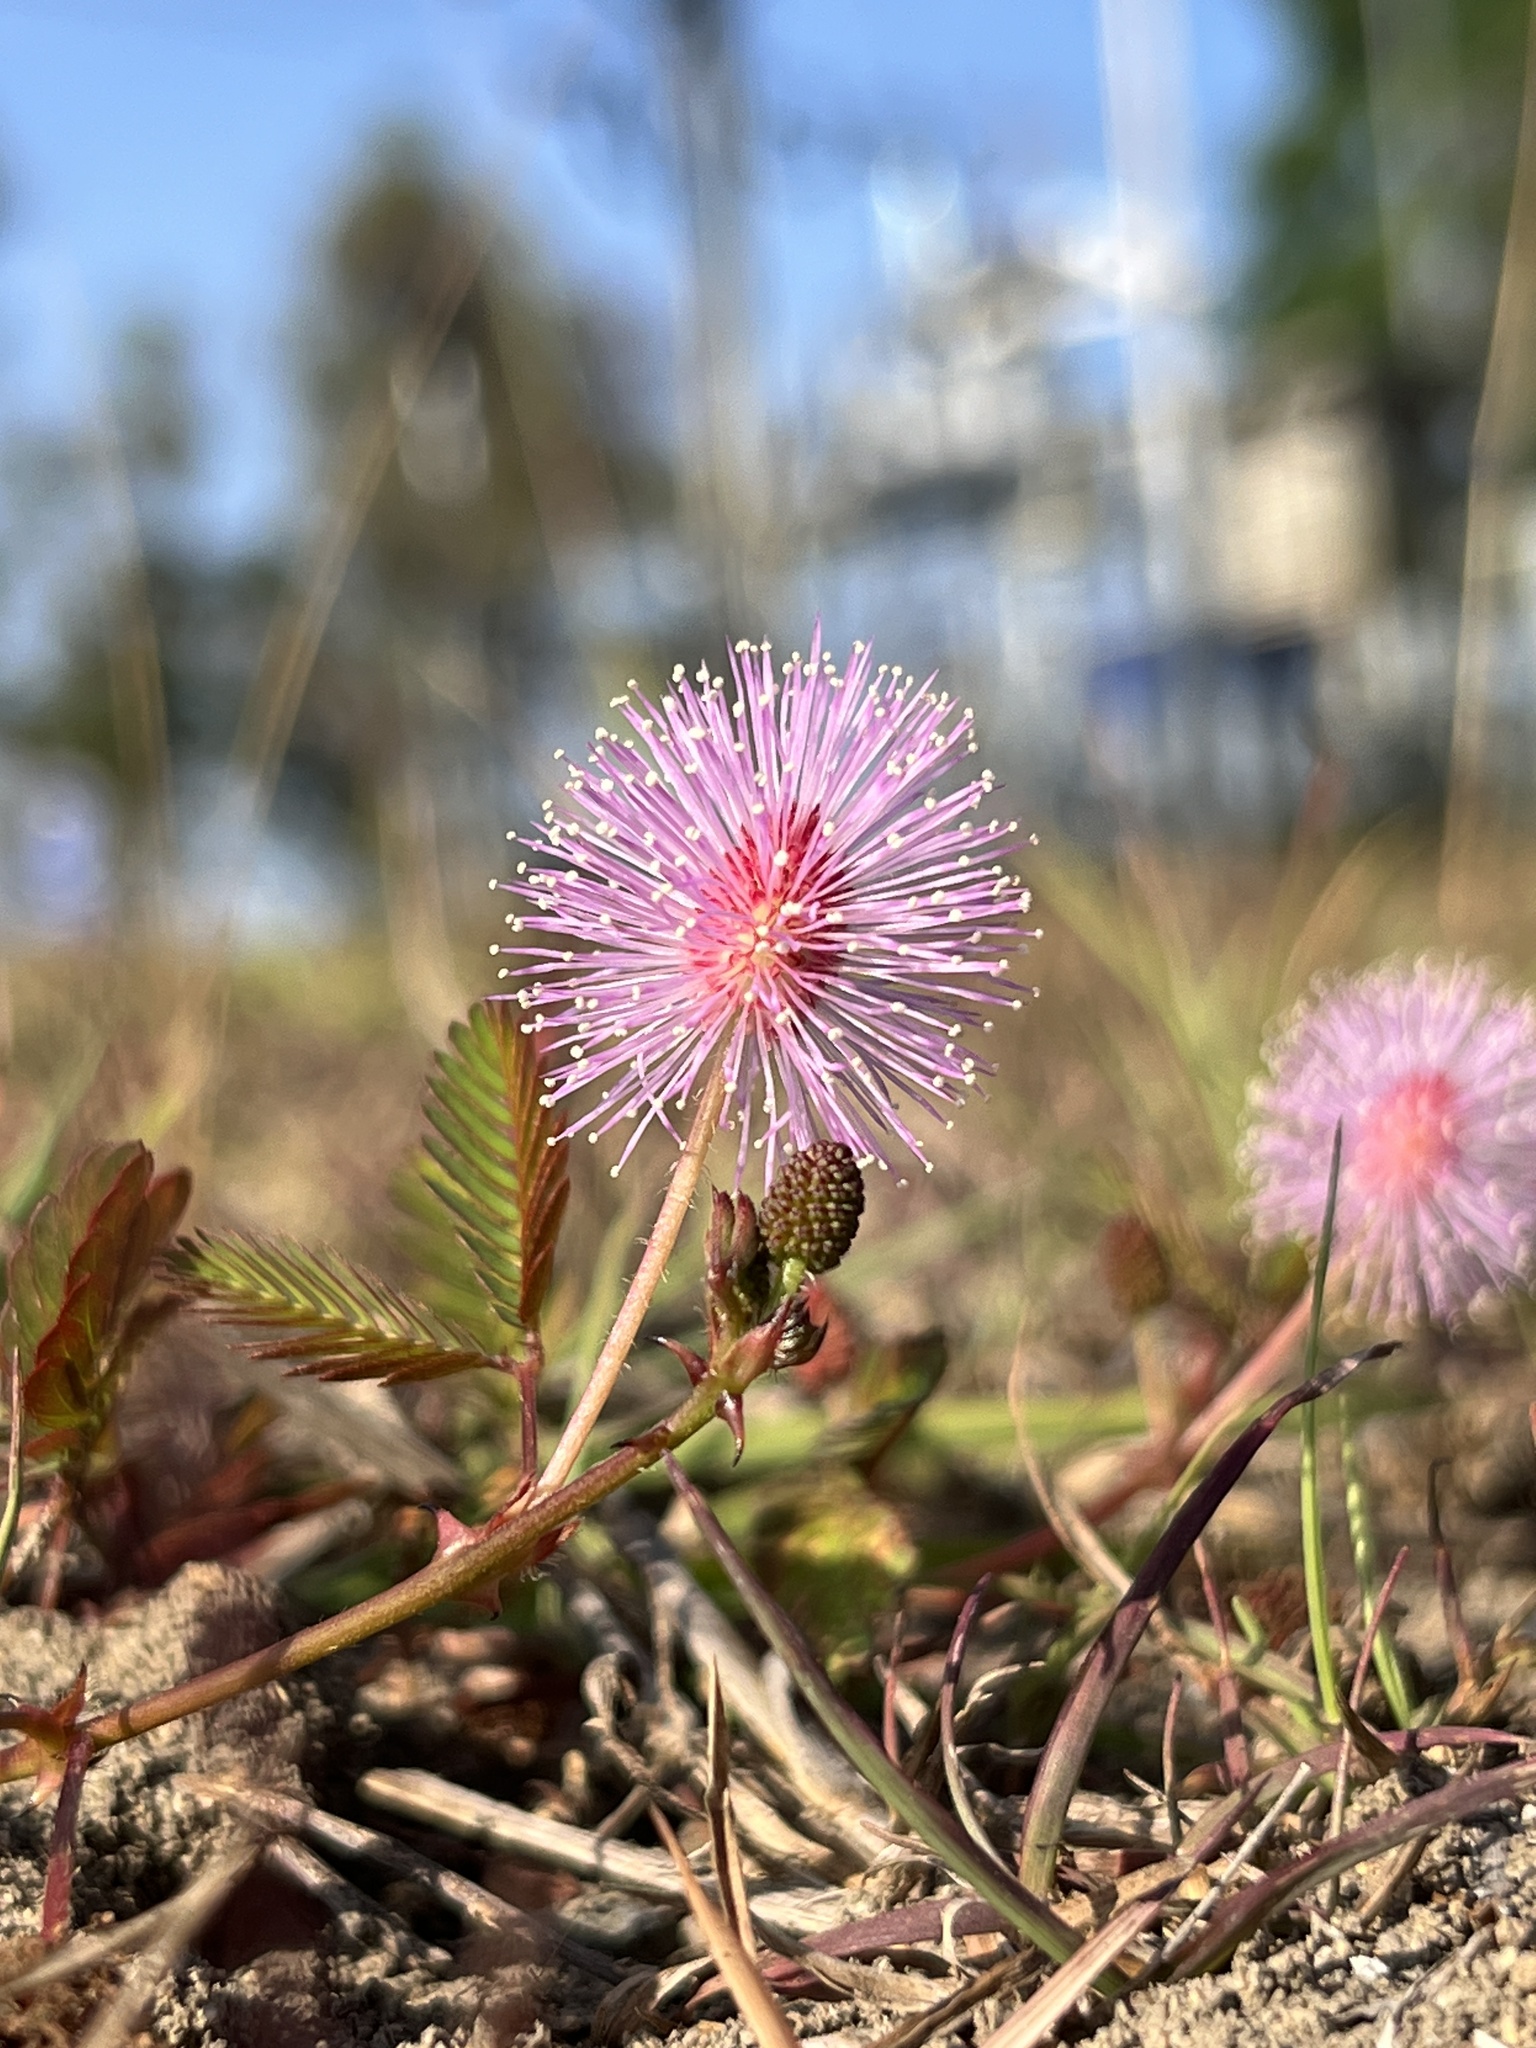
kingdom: Plantae
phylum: Tracheophyta
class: Magnoliopsida
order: Fabales
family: Fabaceae
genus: Mimosa
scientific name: Mimosa pudica
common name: Sensitive plant
